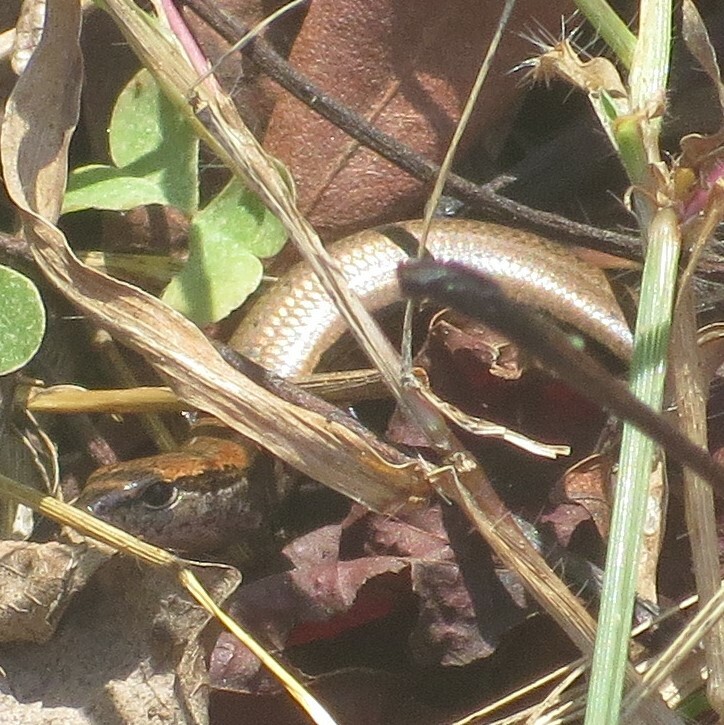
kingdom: Animalia
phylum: Chordata
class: Squamata
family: Scincidae
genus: Scincella
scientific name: Scincella lateralis
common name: Ground skink
